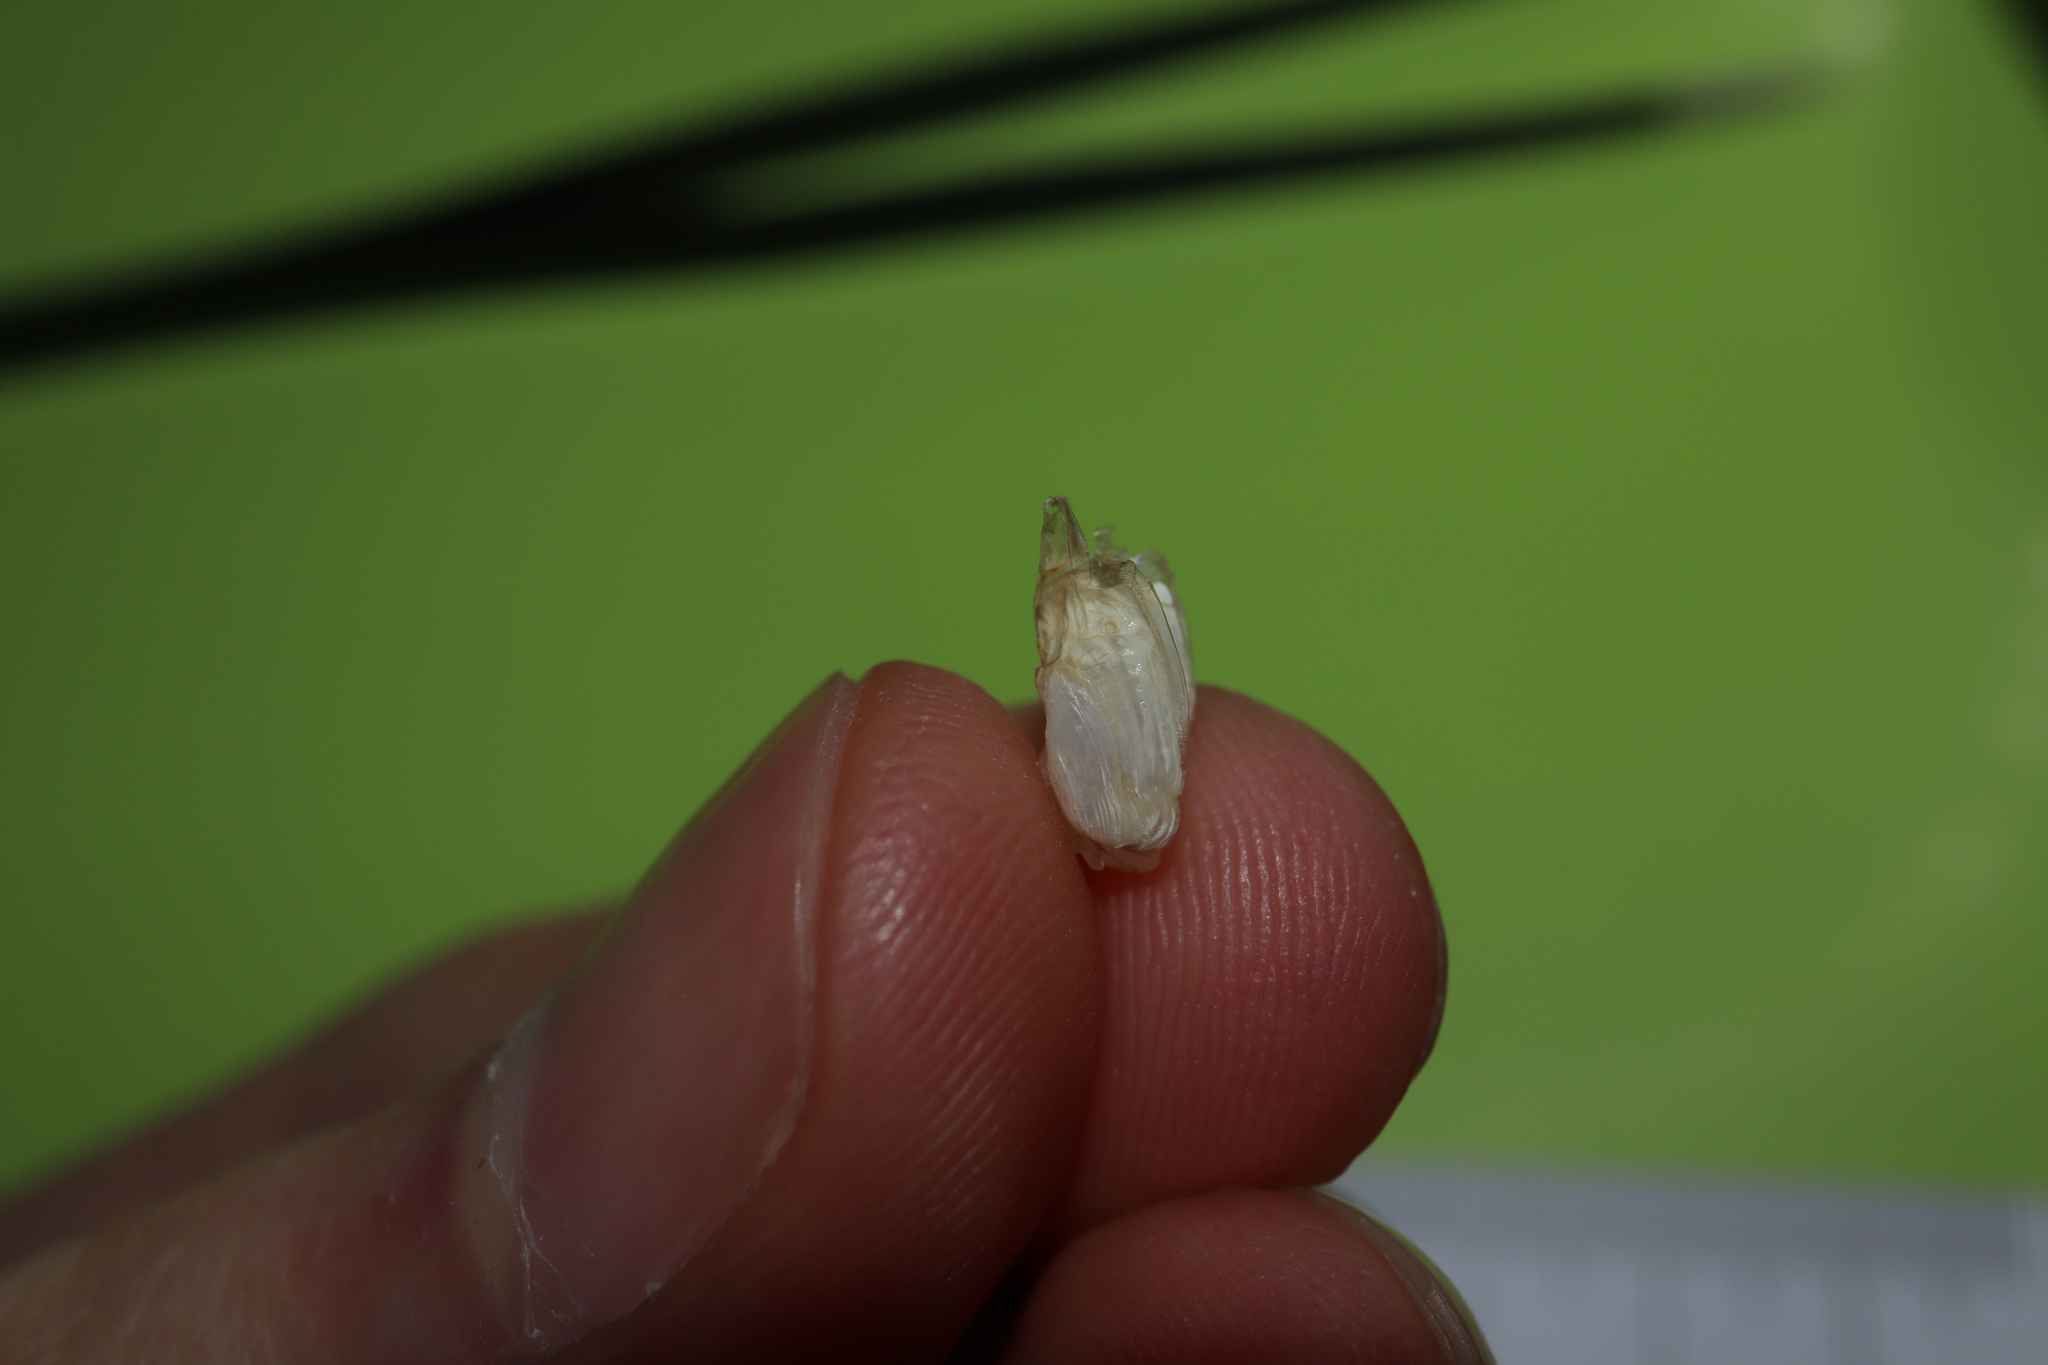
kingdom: Animalia
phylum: Mollusca
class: Bivalvia
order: Adapedonta
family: Hiatellidae
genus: Hiatella
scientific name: Hiatella australis
